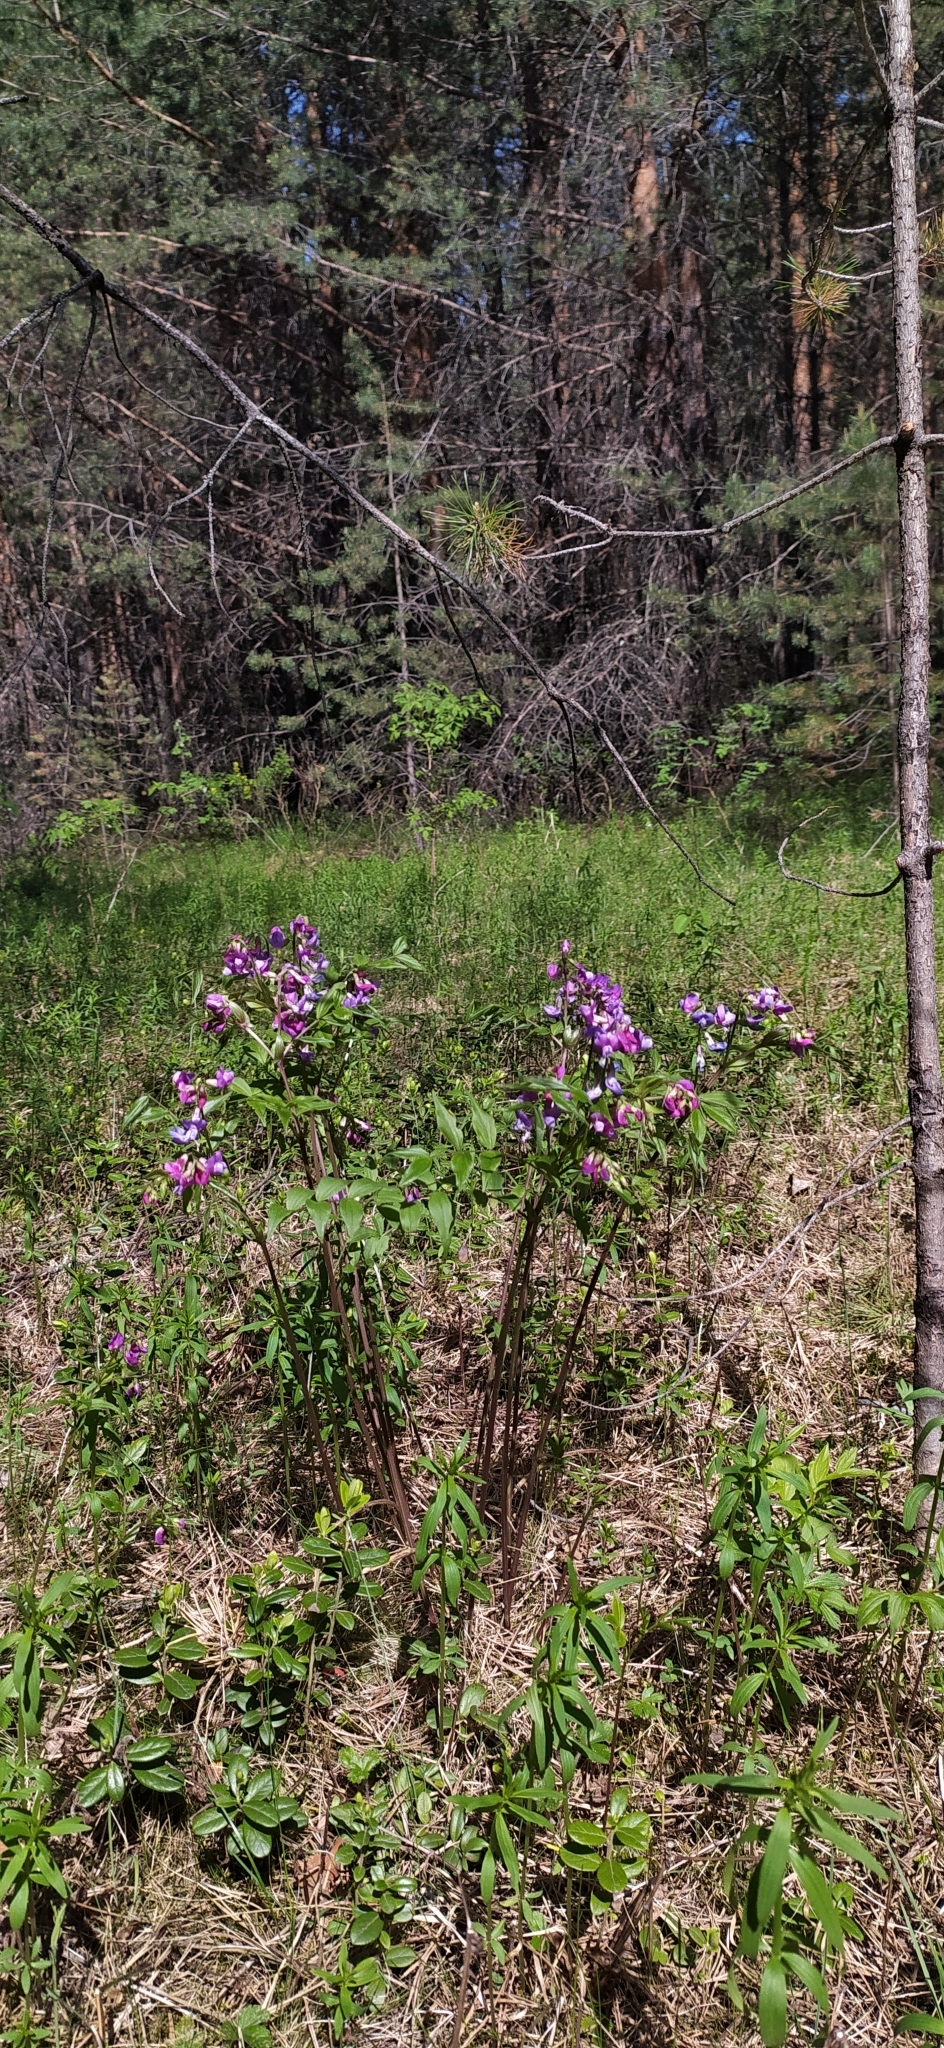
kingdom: Plantae
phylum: Tracheophyta
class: Magnoliopsida
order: Fabales
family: Fabaceae
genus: Lathyrus
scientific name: Lathyrus vernus
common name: Spring pea
